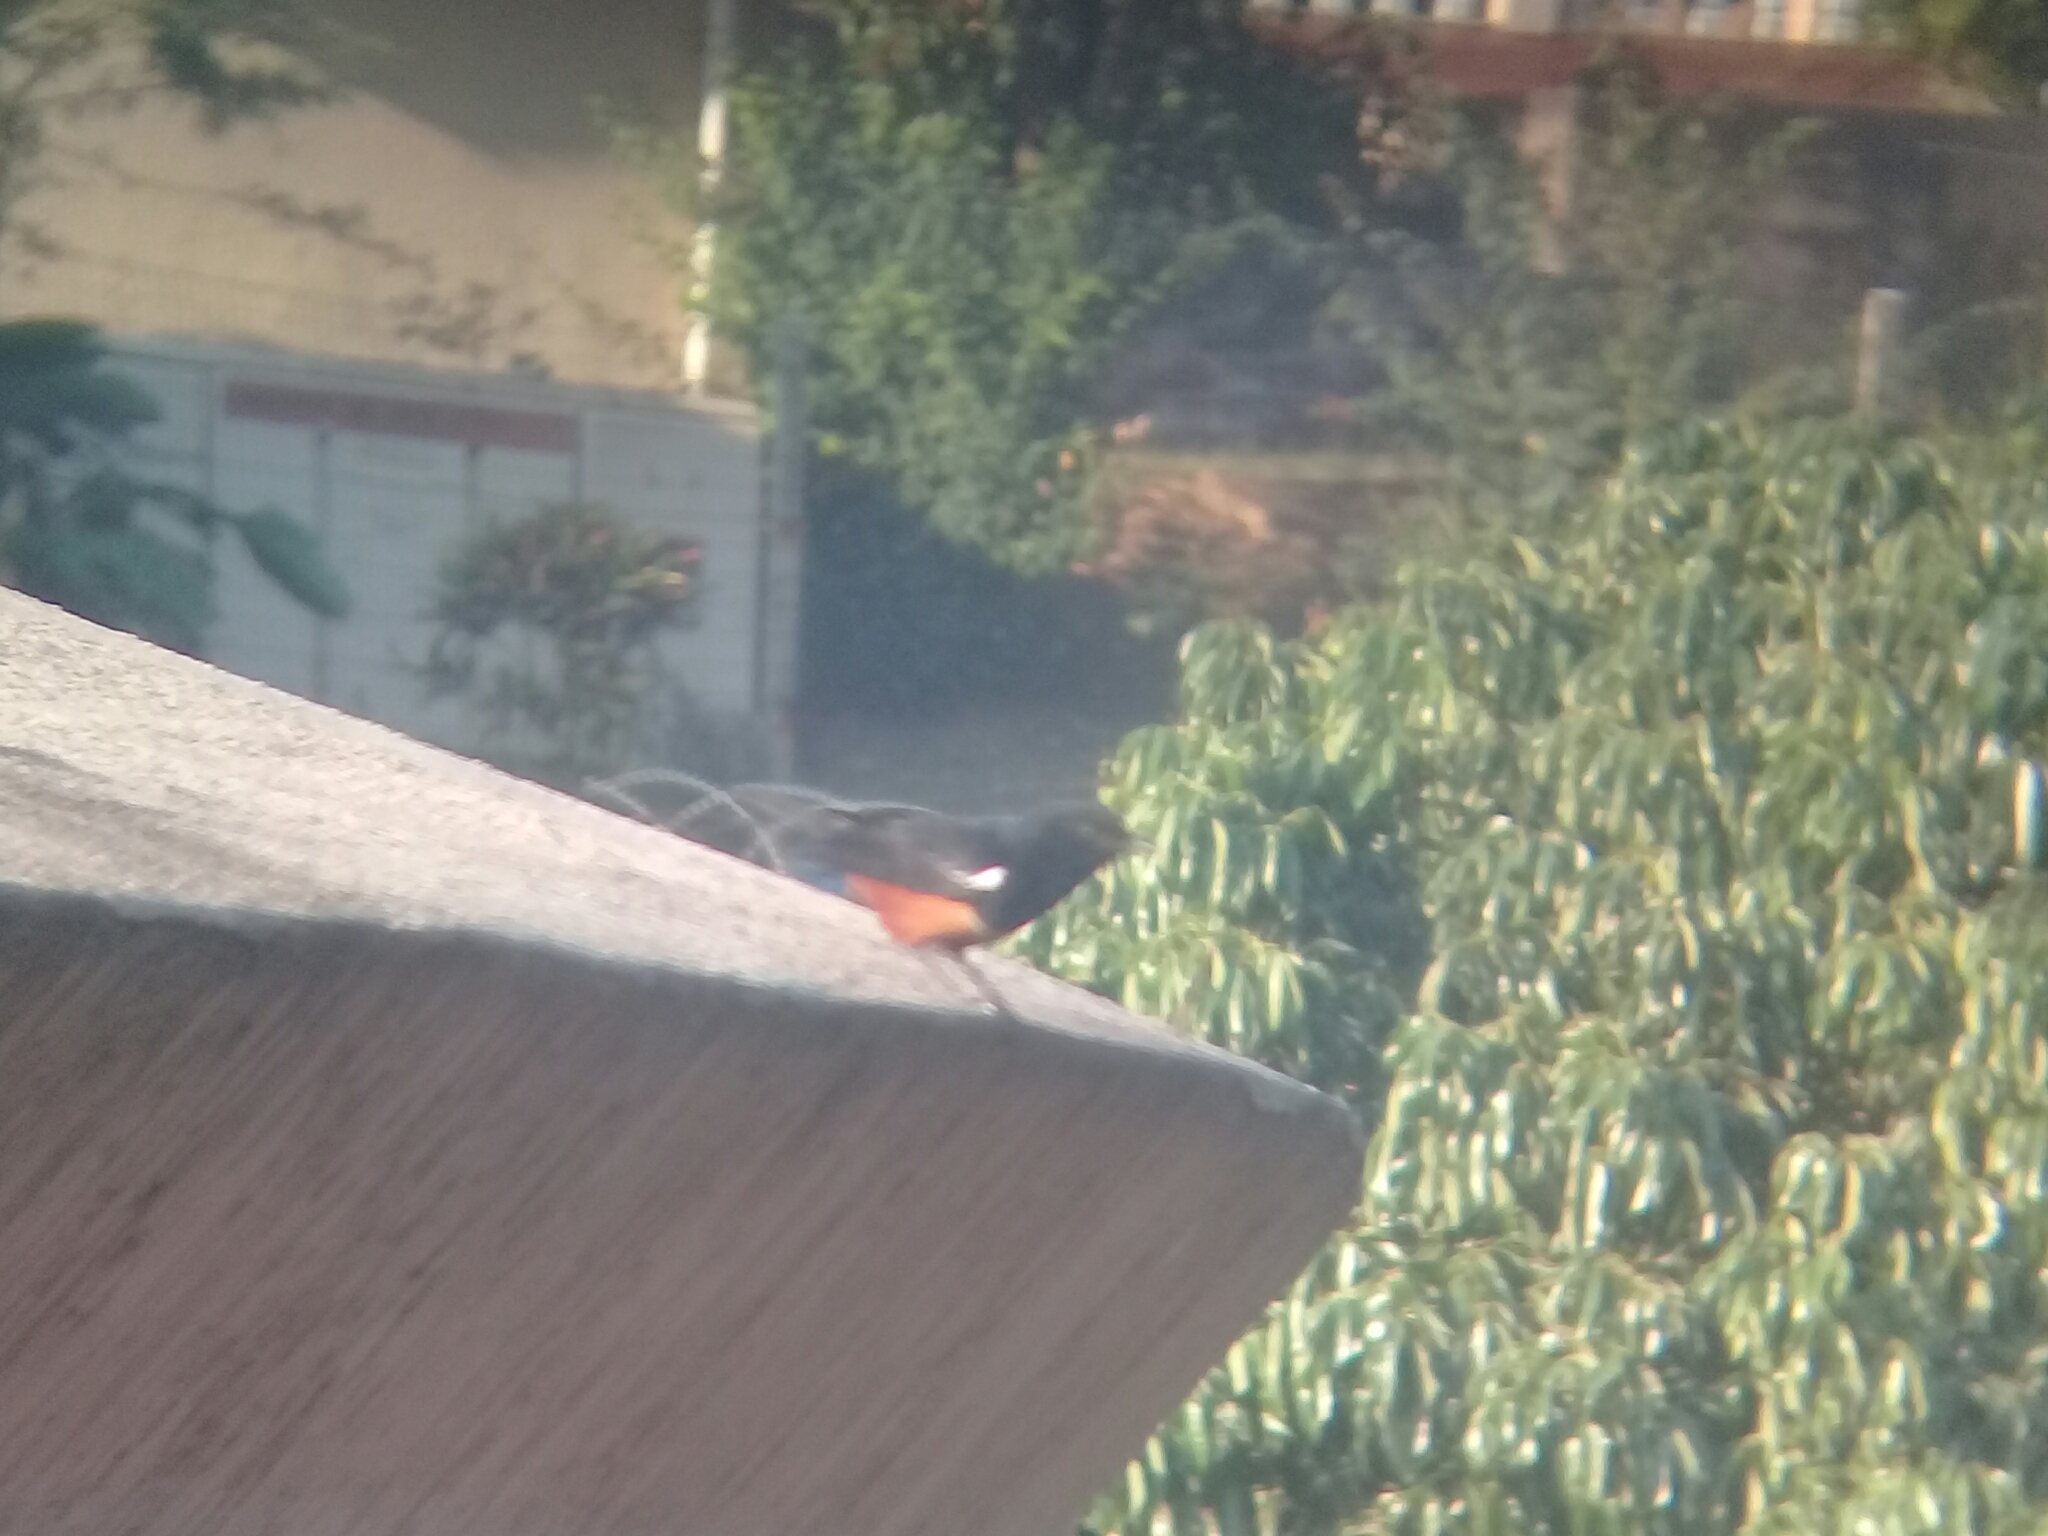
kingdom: Animalia
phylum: Chordata
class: Aves
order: Passeriformes
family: Muscicapidae
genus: Thamnolaea
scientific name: Thamnolaea cinnamomeiventris
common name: Mocking cliff chat
